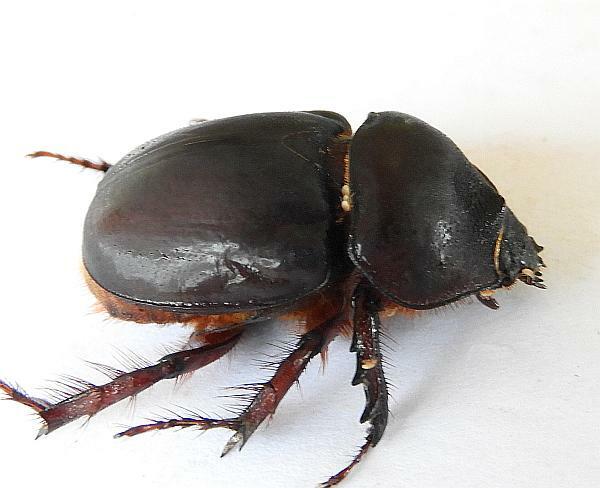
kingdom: Animalia
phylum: Arthropoda
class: Insecta
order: Coleoptera
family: Scarabaeidae
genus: Strategus
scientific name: Strategus antaeus
